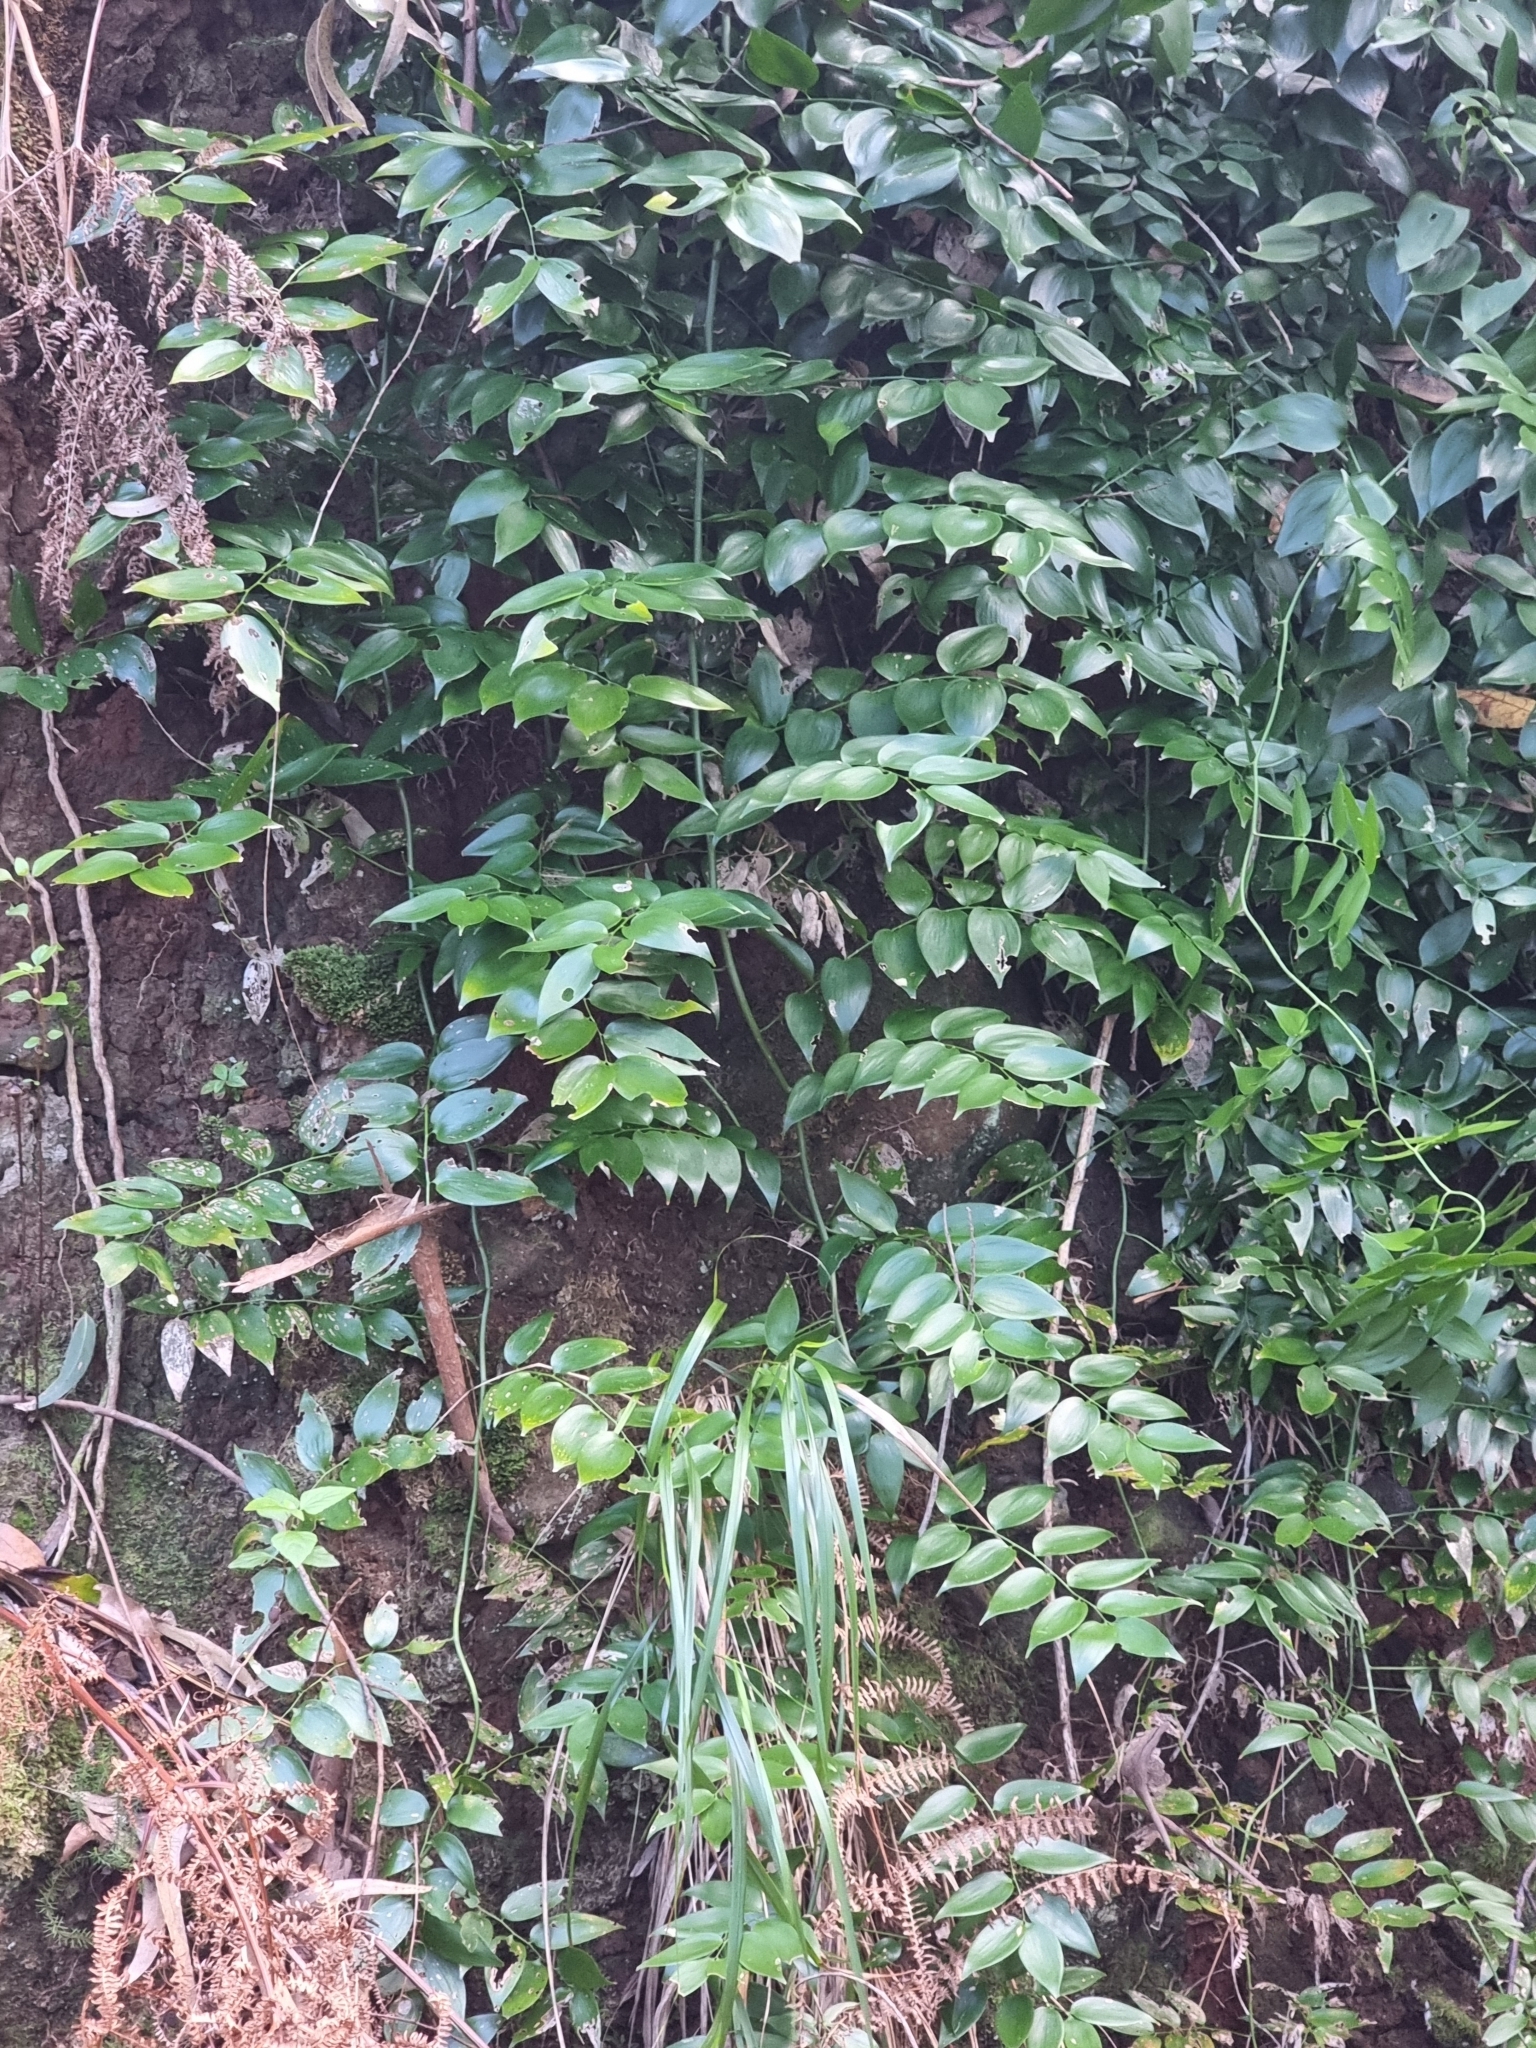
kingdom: Plantae
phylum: Tracheophyta
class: Liliopsida
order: Asparagales
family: Asparagaceae
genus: Semele
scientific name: Semele androgyna
